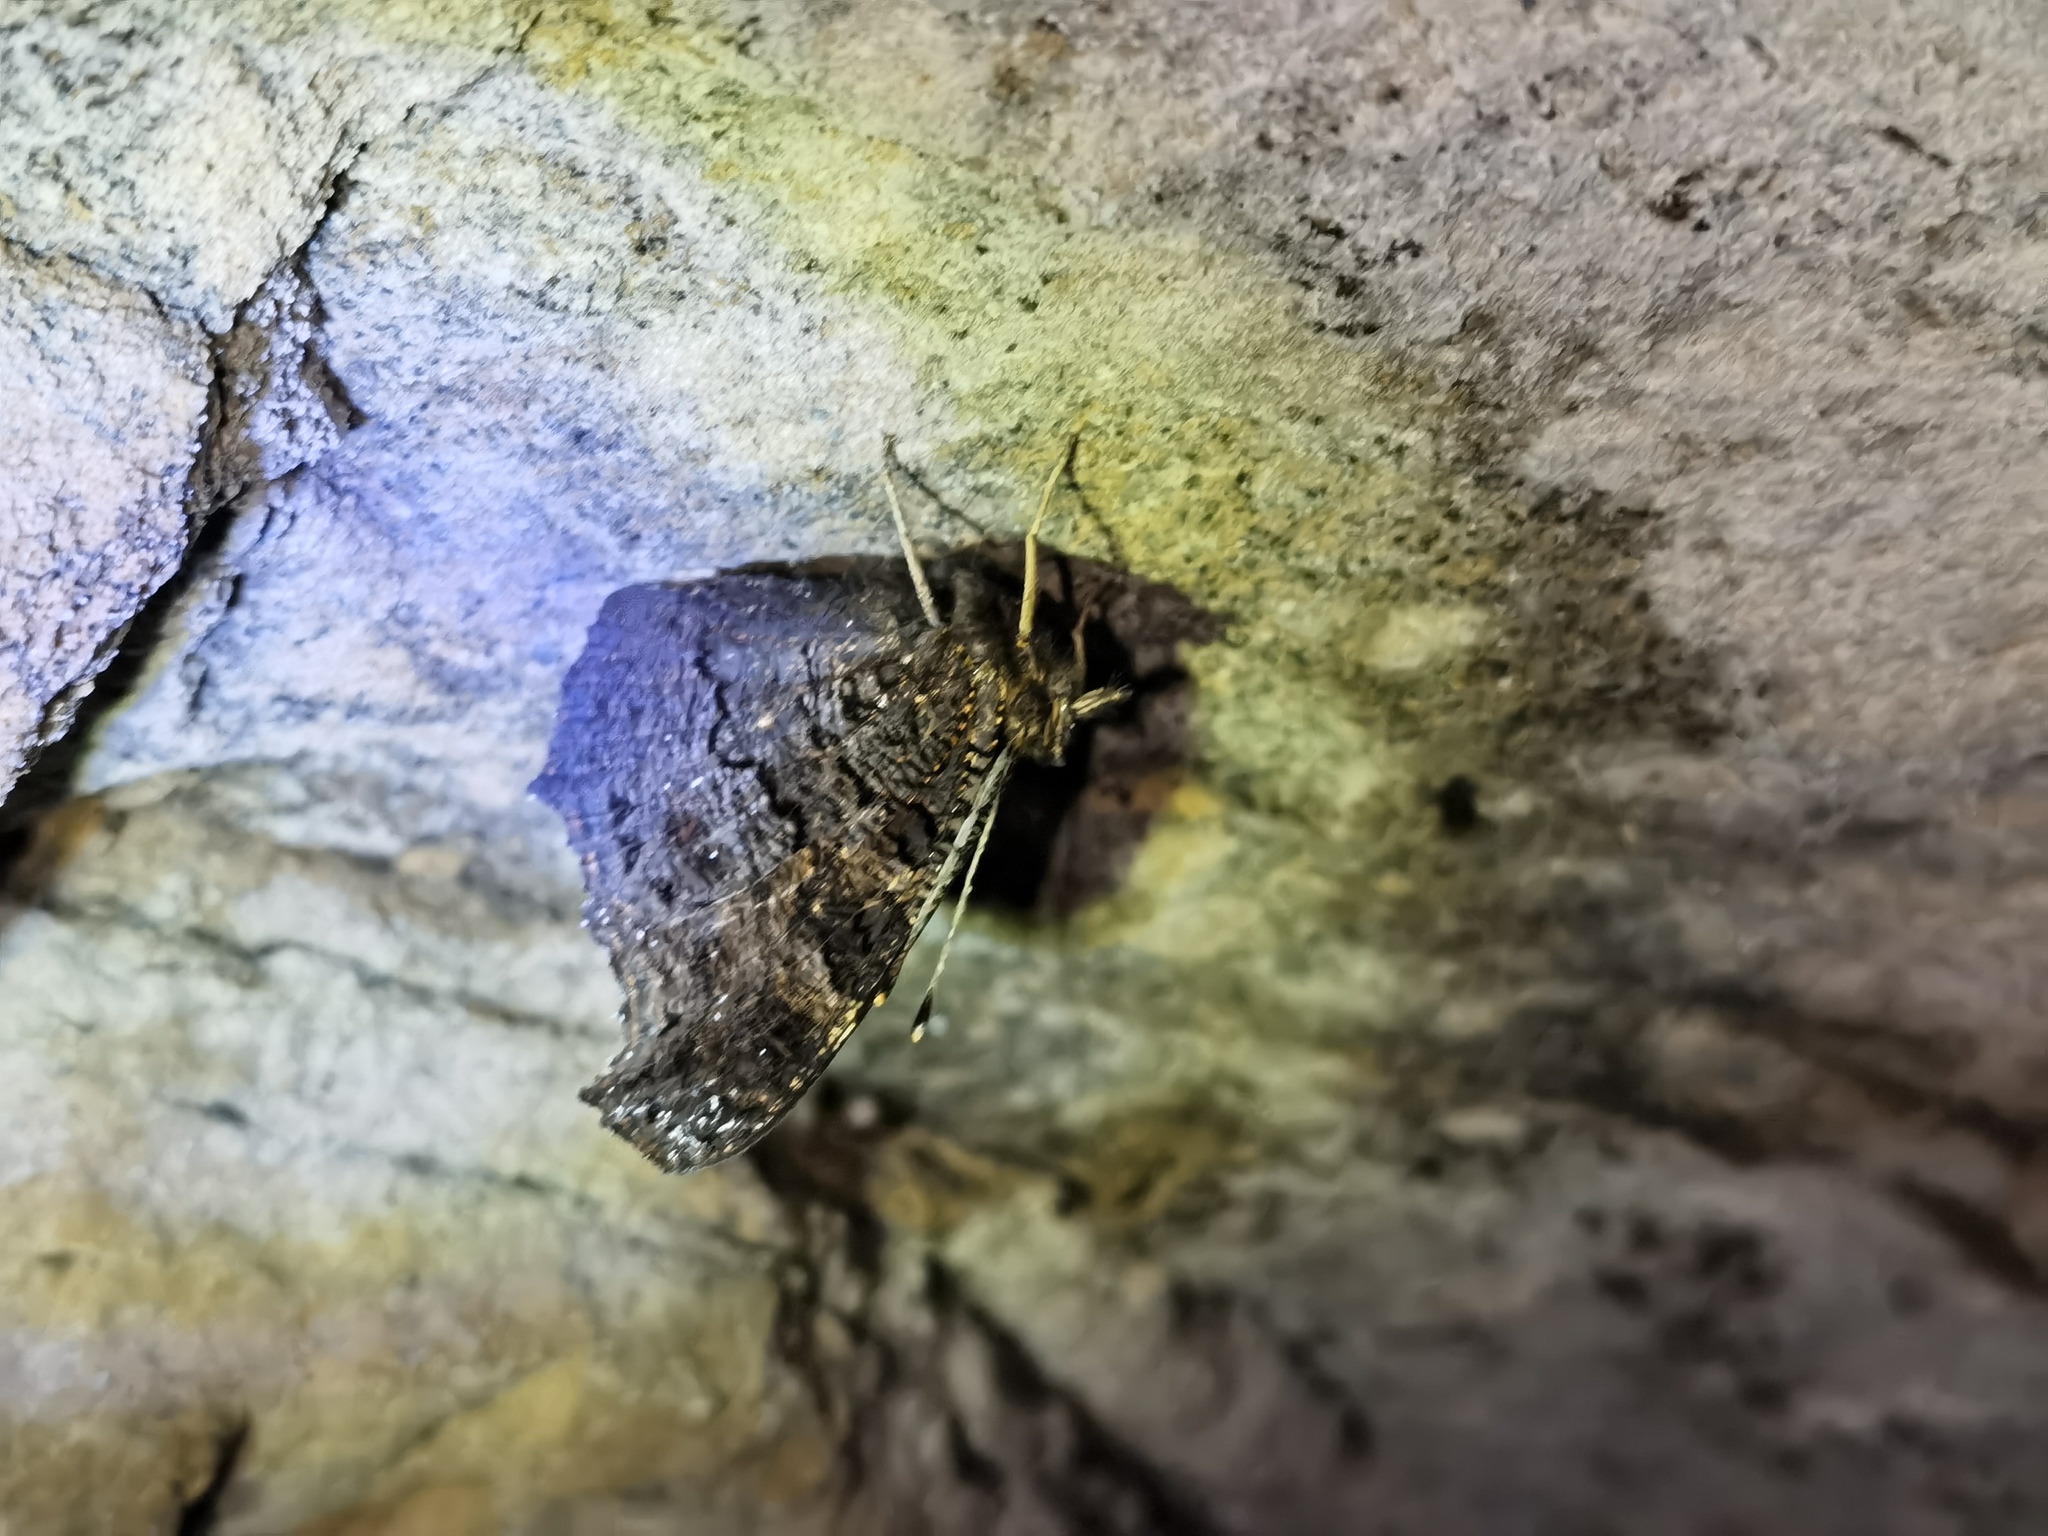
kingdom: Animalia
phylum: Arthropoda
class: Insecta
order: Lepidoptera
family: Nymphalidae
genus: Aglais
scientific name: Aglais io
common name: Peacock
